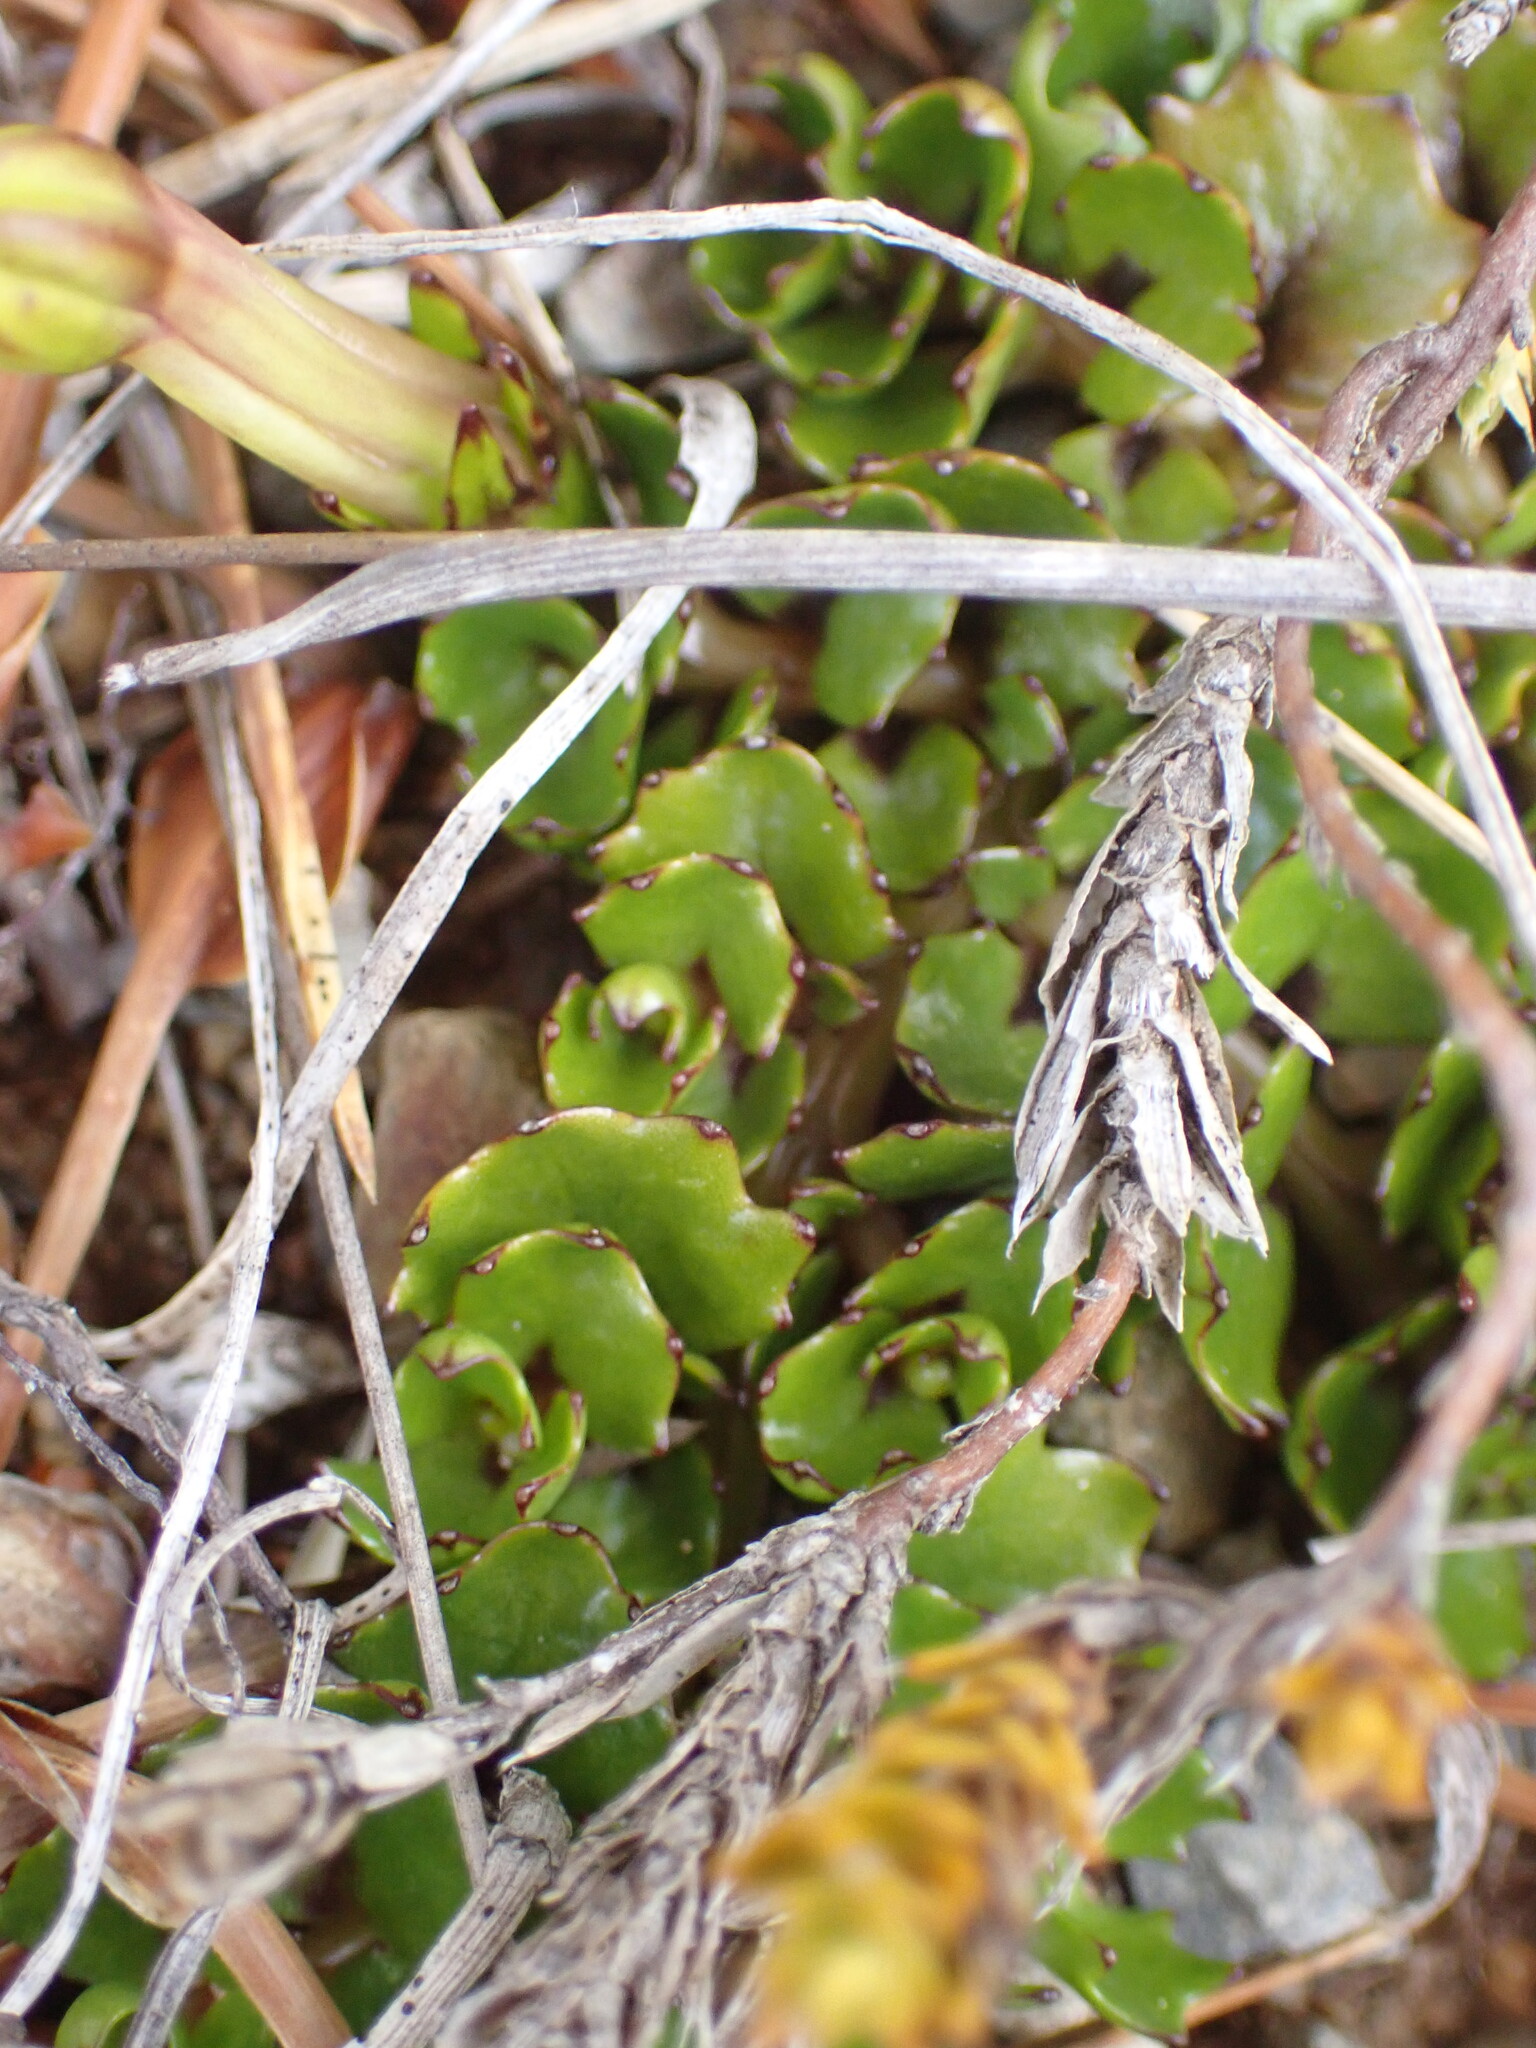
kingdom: Plantae
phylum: Tracheophyta
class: Magnoliopsida
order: Asterales
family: Campanulaceae
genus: Lobelia
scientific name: Lobelia macrodon
